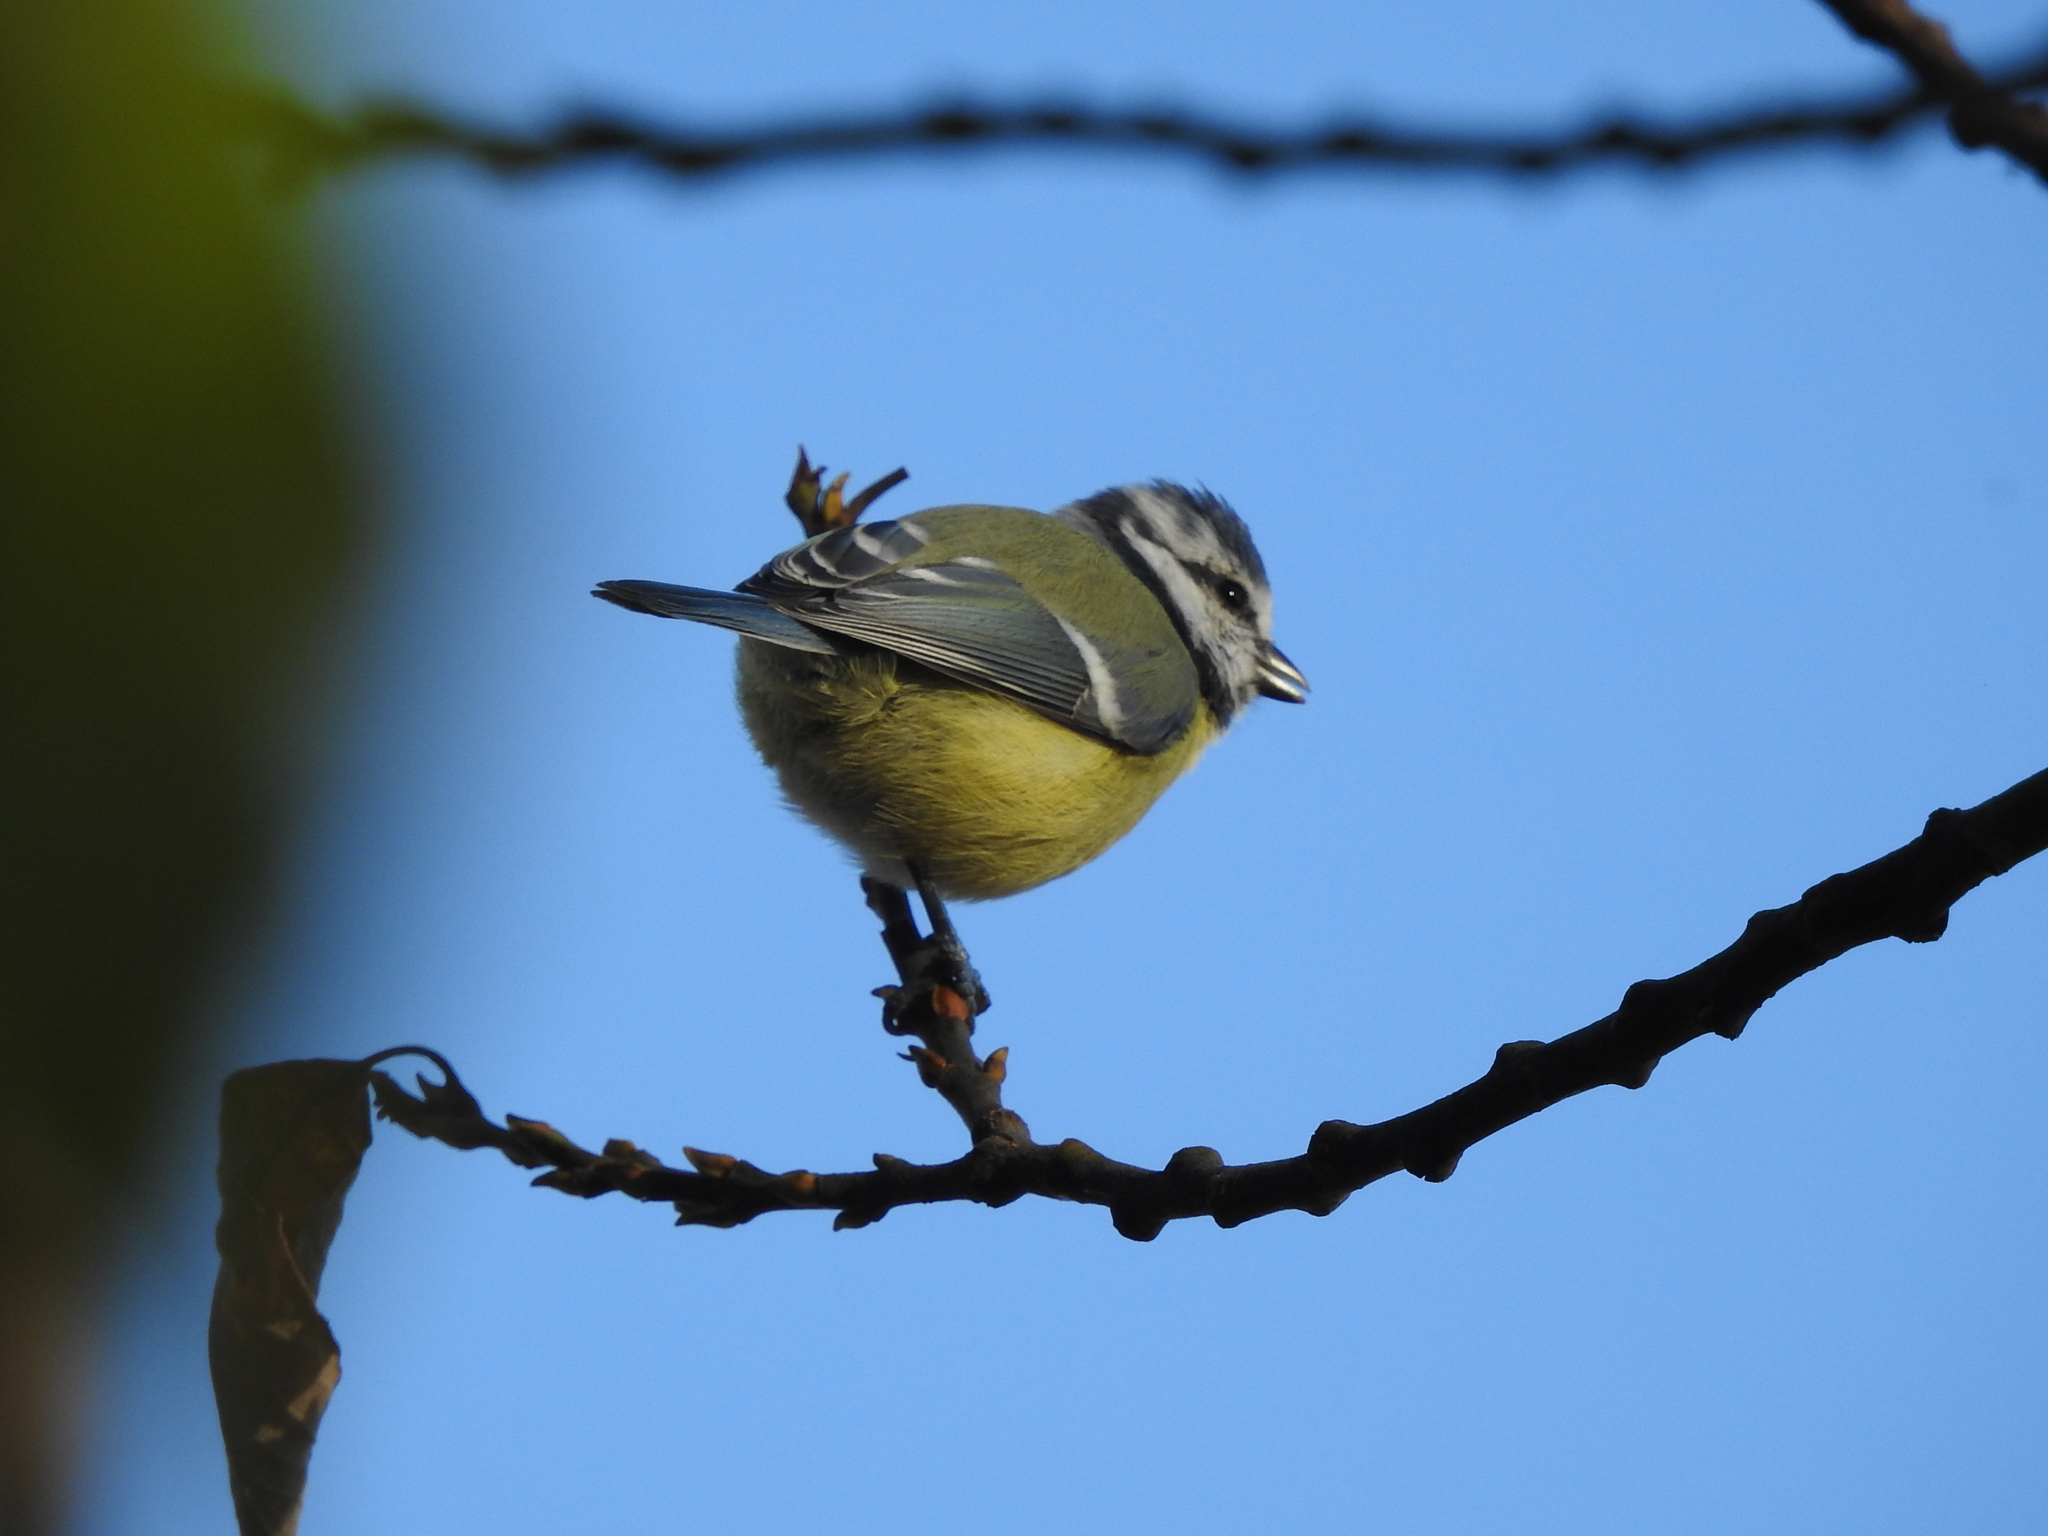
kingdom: Animalia
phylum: Chordata
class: Aves
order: Passeriformes
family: Paridae
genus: Cyanistes
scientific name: Cyanistes caeruleus
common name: Eurasian blue tit
